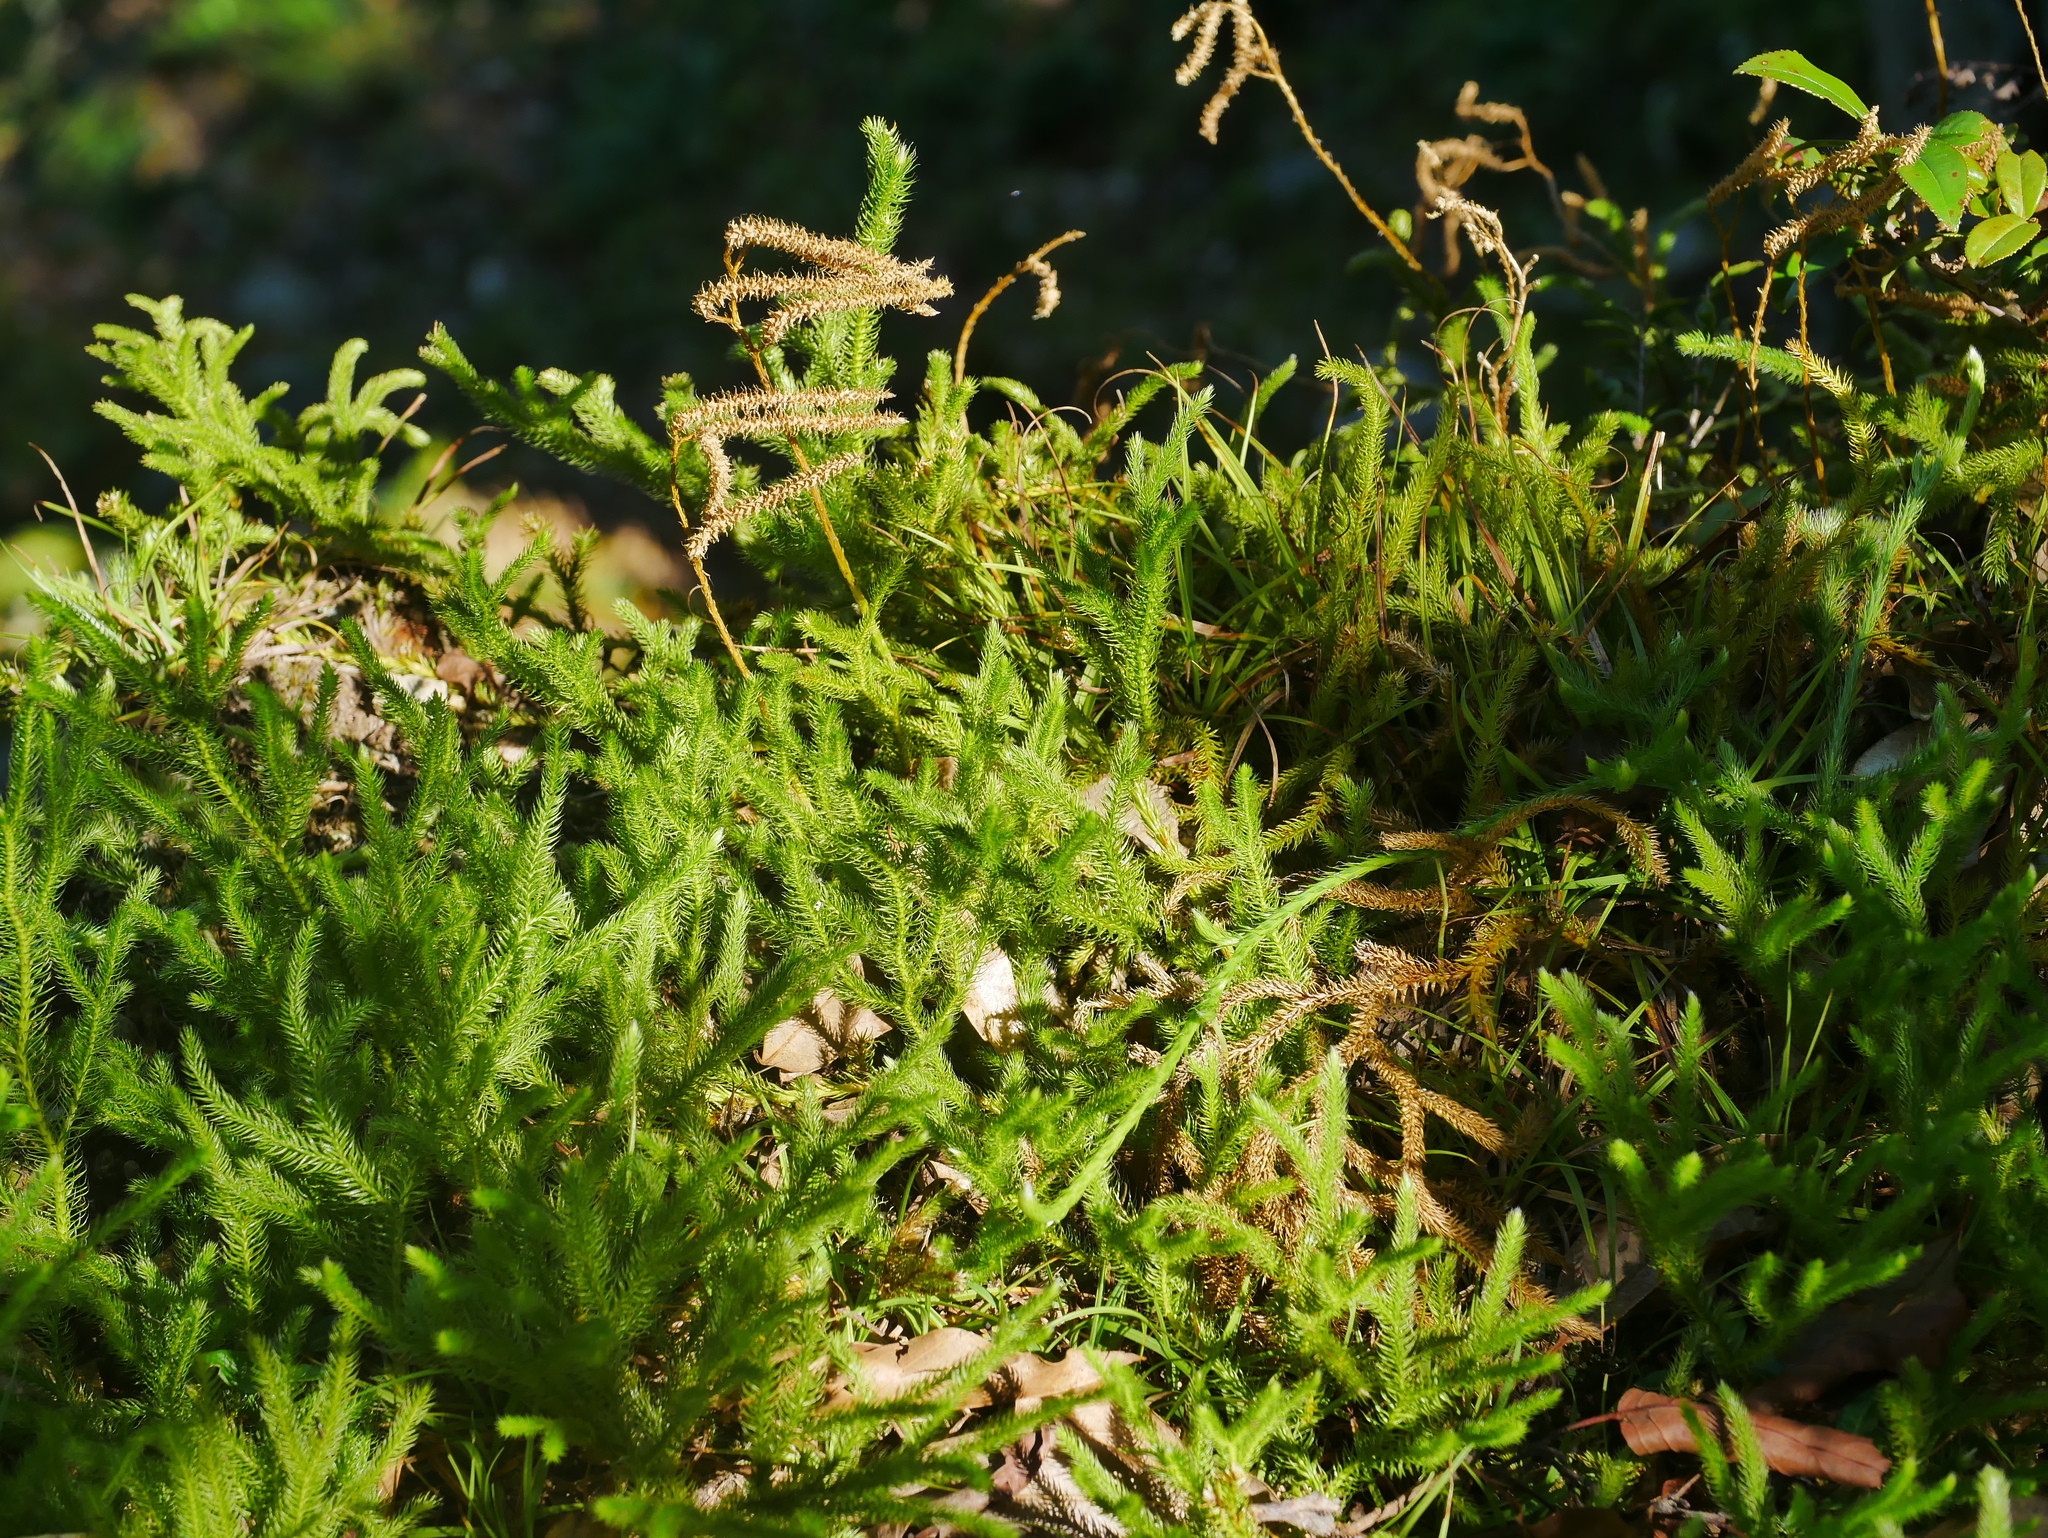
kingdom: Plantae
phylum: Tracheophyta
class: Lycopodiopsida
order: Lycopodiales
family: Lycopodiaceae
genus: Lycopodium
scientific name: Lycopodium clavatum
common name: Stag's-horn clubmoss
